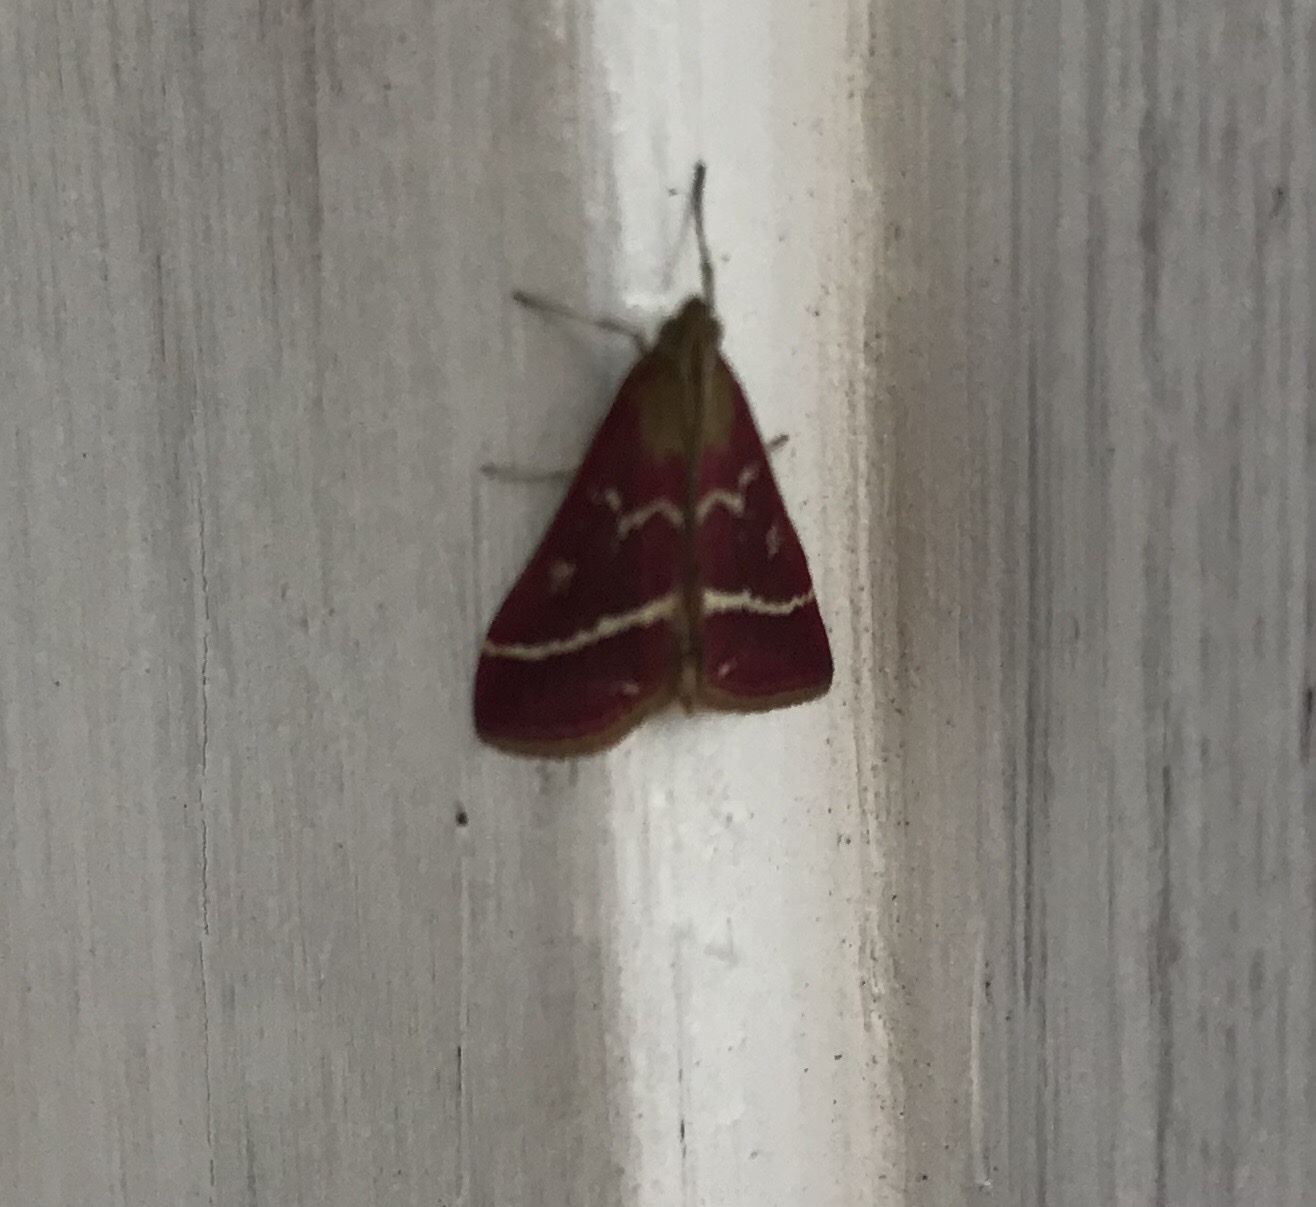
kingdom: Animalia
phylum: Arthropoda
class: Insecta
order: Lepidoptera
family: Crambidae
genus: Pyrausta
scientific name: Pyrausta volupialis
